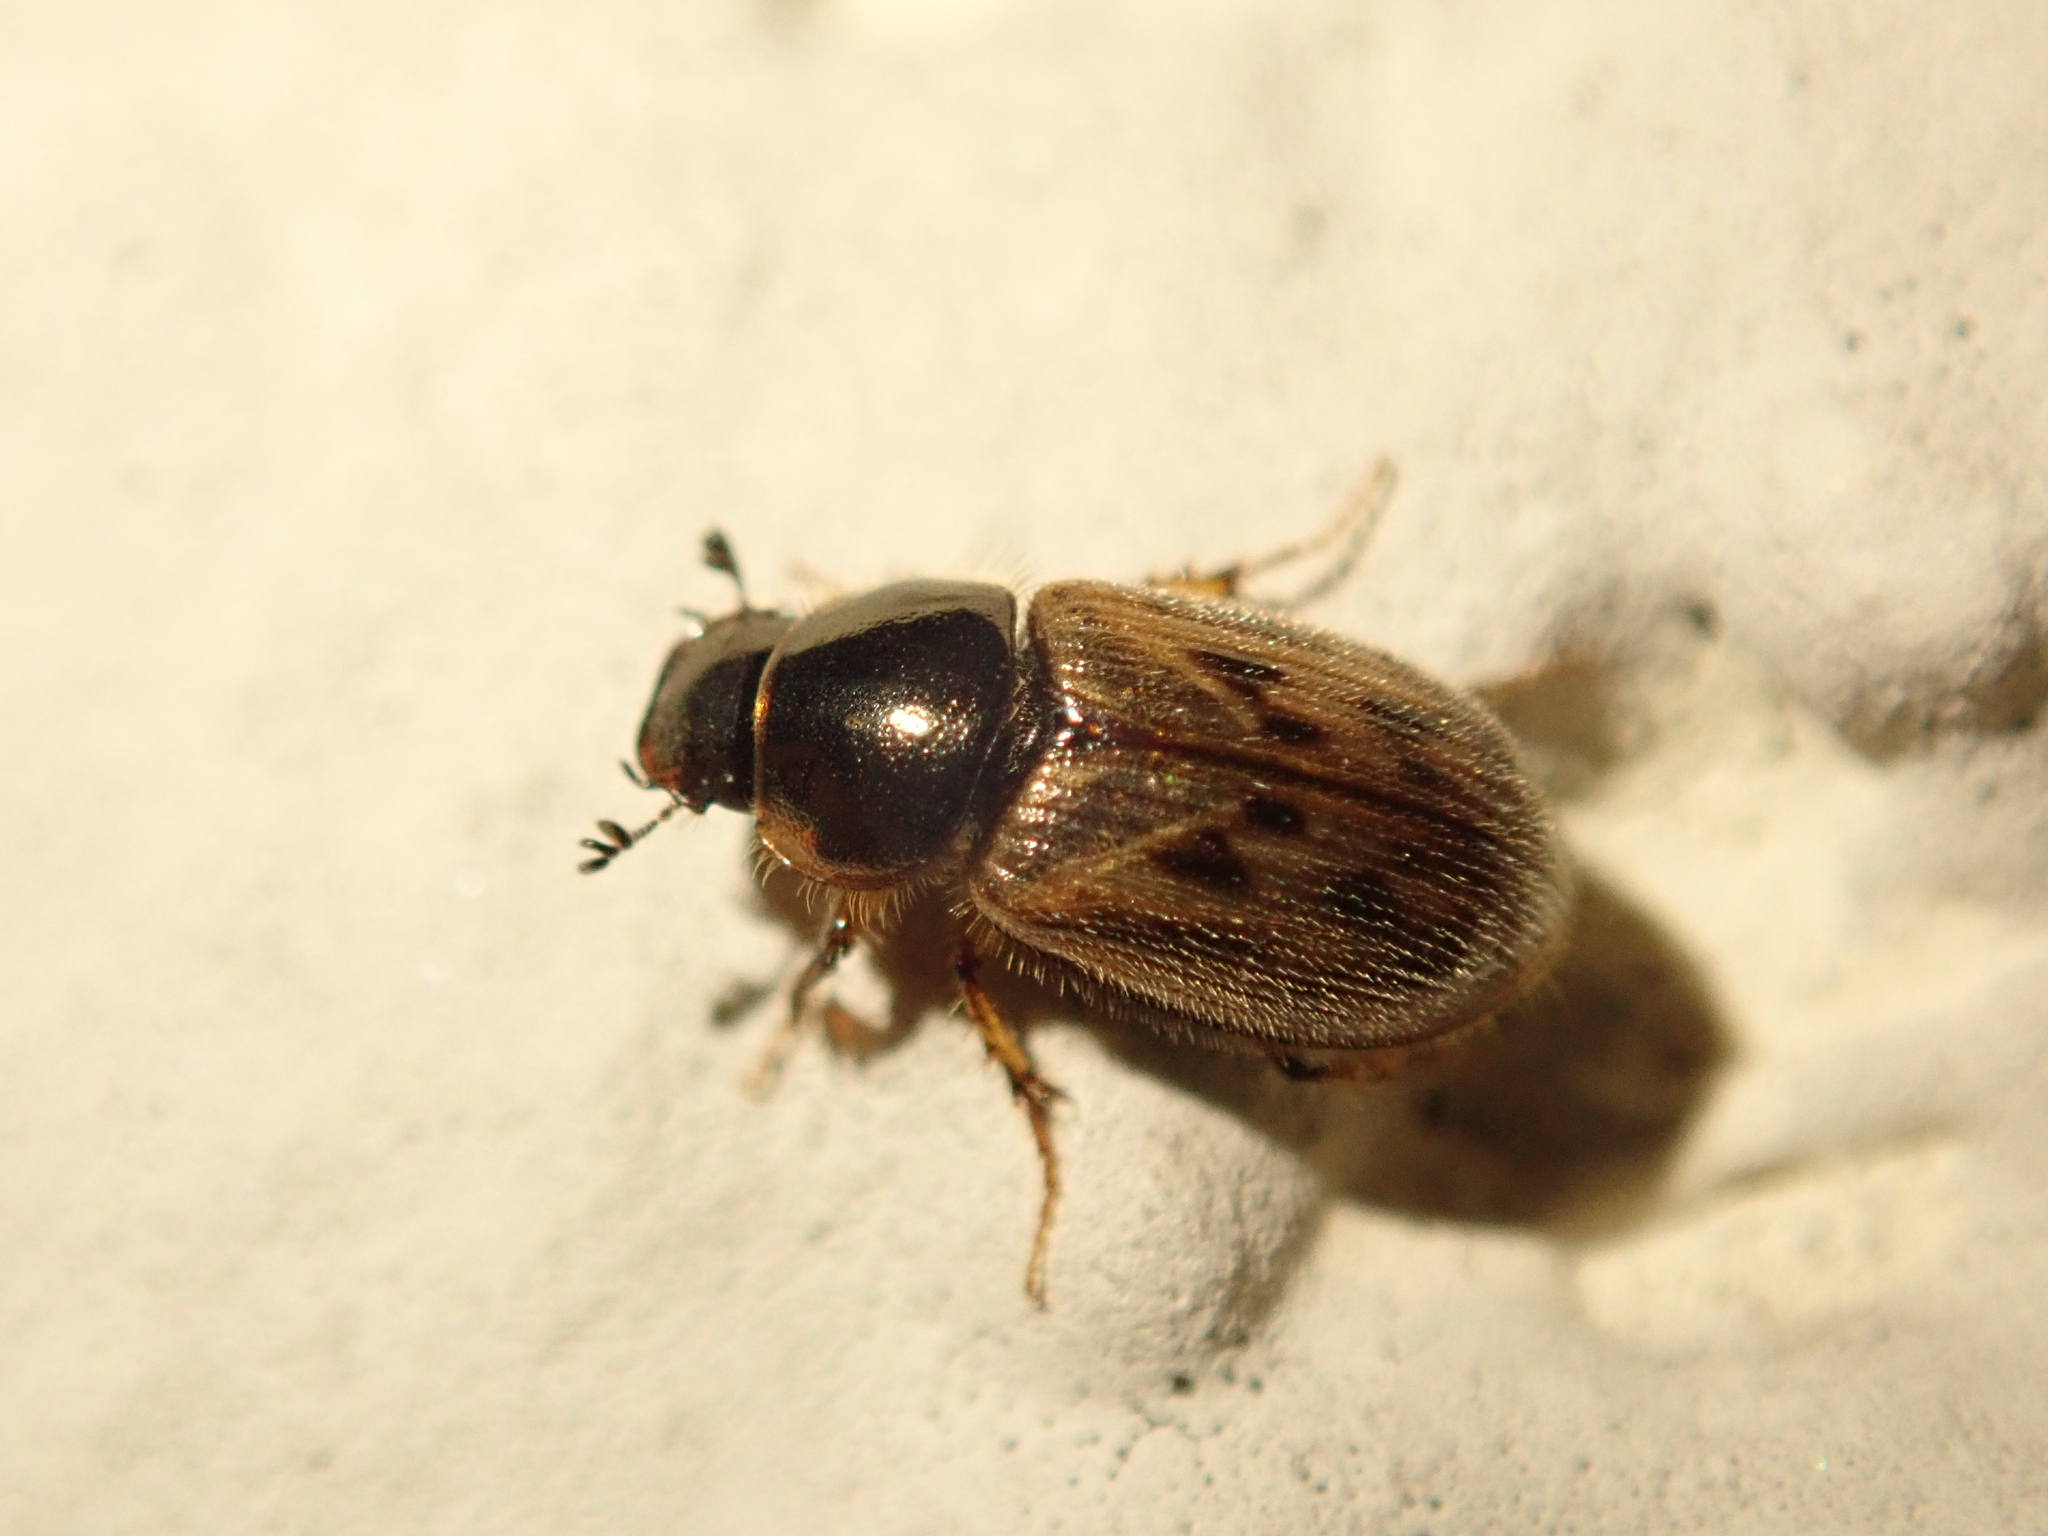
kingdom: Animalia
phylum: Arthropoda
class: Insecta
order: Coleoptera
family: Scarabaeidae
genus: Nimbus
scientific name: Nimbus contaminatus
